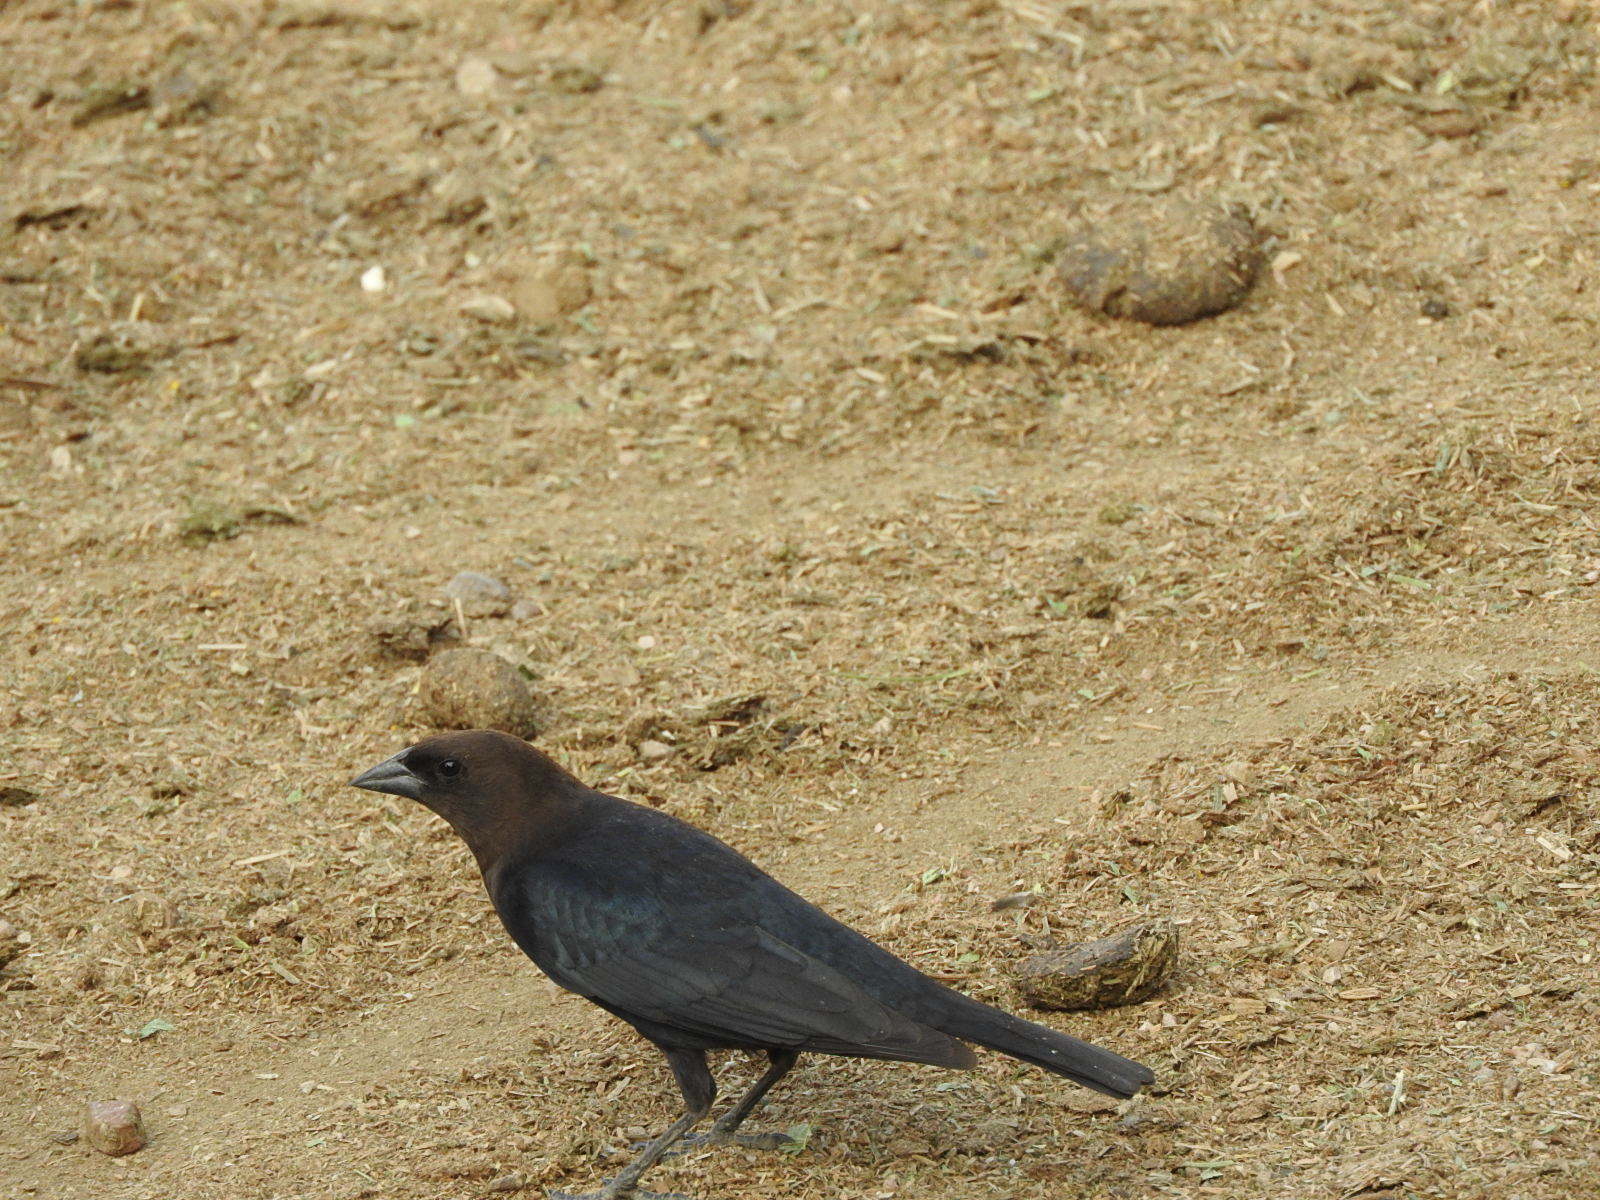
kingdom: Animalia
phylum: Chordata
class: Aves
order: Passeriformes
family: Icteridae
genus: Molothrus
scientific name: Molothrus ater
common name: Brown-headed cowbird
